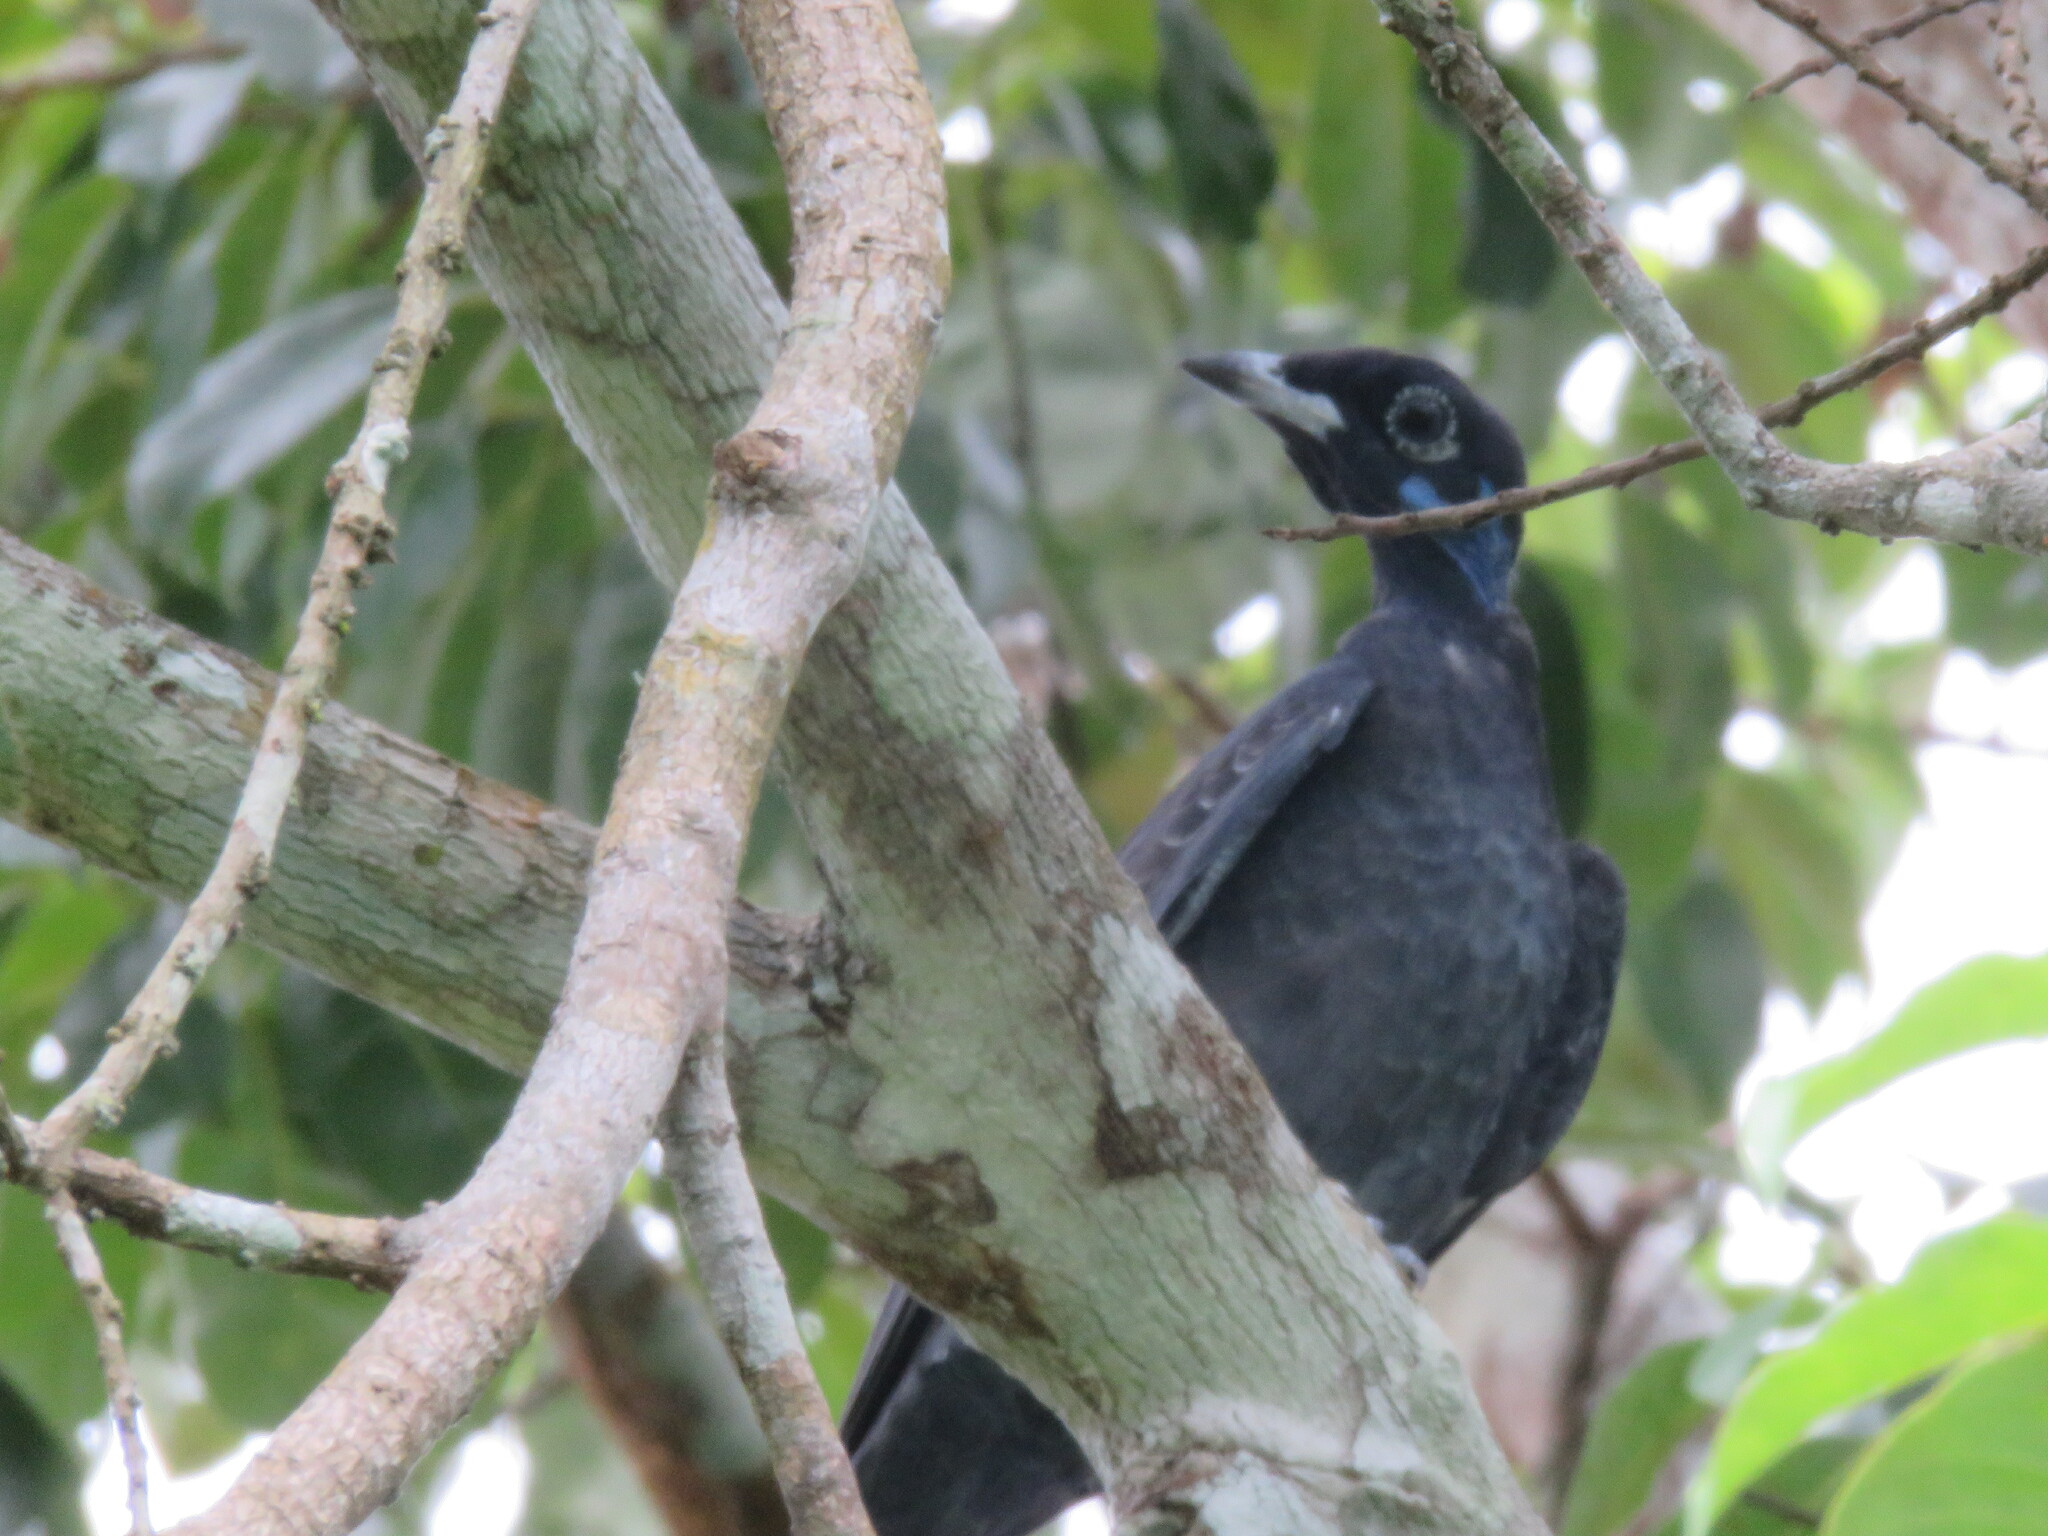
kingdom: Animalia
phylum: Chordata
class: Aves
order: Passeriformes
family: Cotingidae
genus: Gymnoderus
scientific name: Gymnoderus foetidus
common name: Bare-necked fruitcrow
